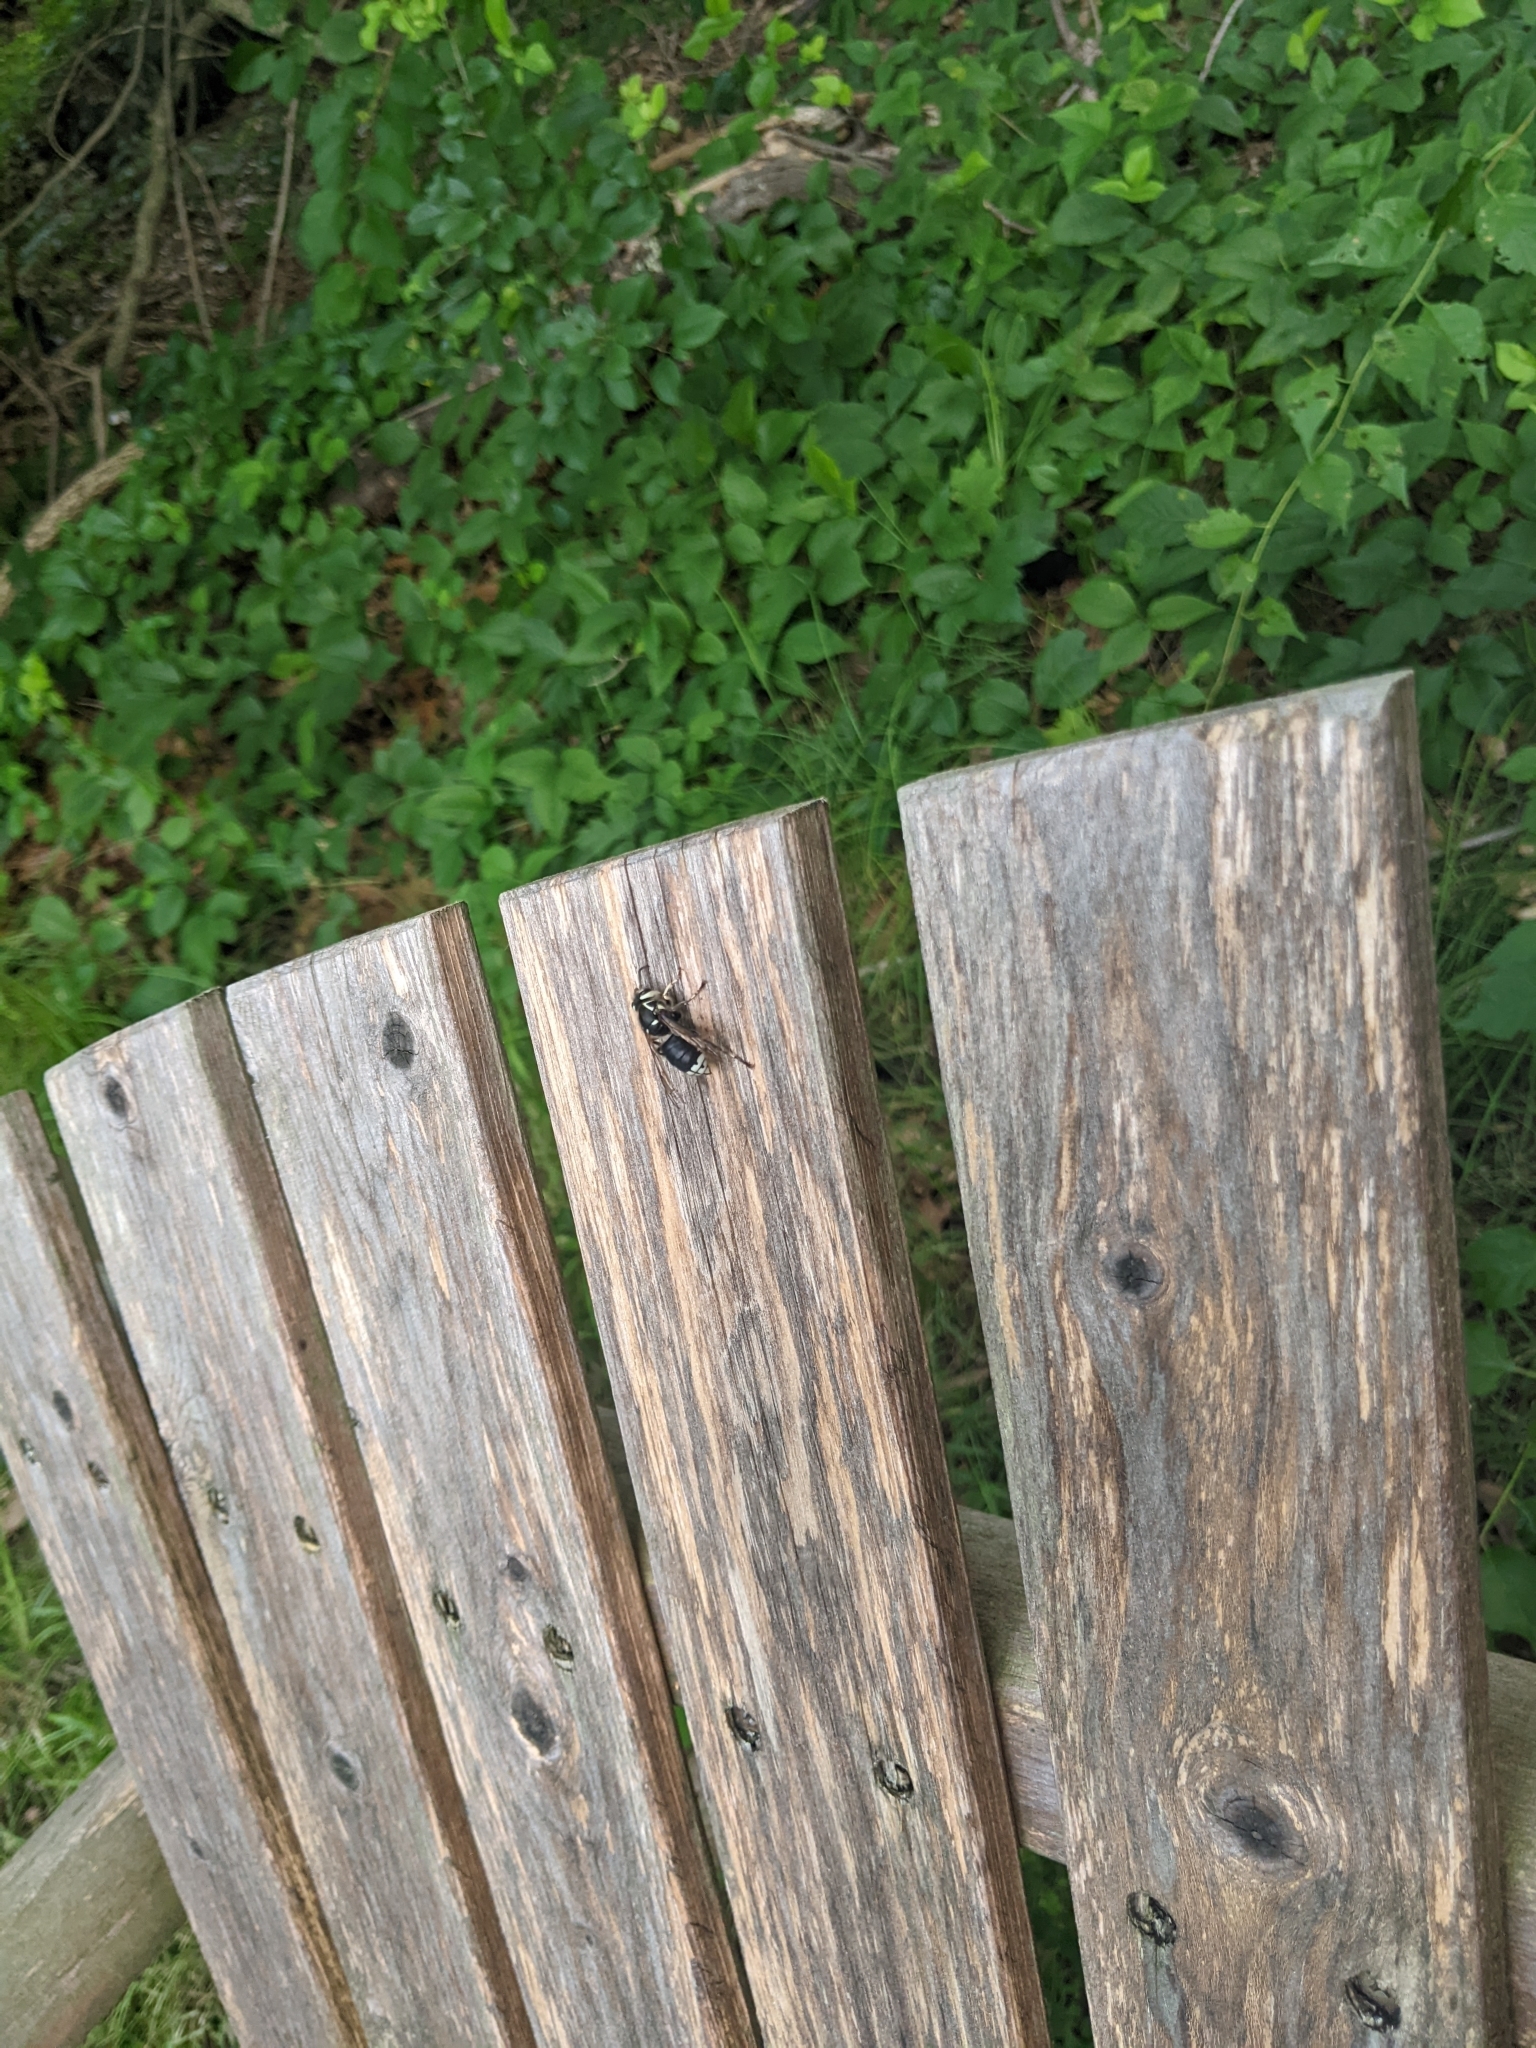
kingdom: Animalia
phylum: Arthropoda
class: Insecta
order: Hymenoptera
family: Vespidae
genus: Dolichovespula
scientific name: Dolichovespula maculata
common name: Bald-faced hornet
